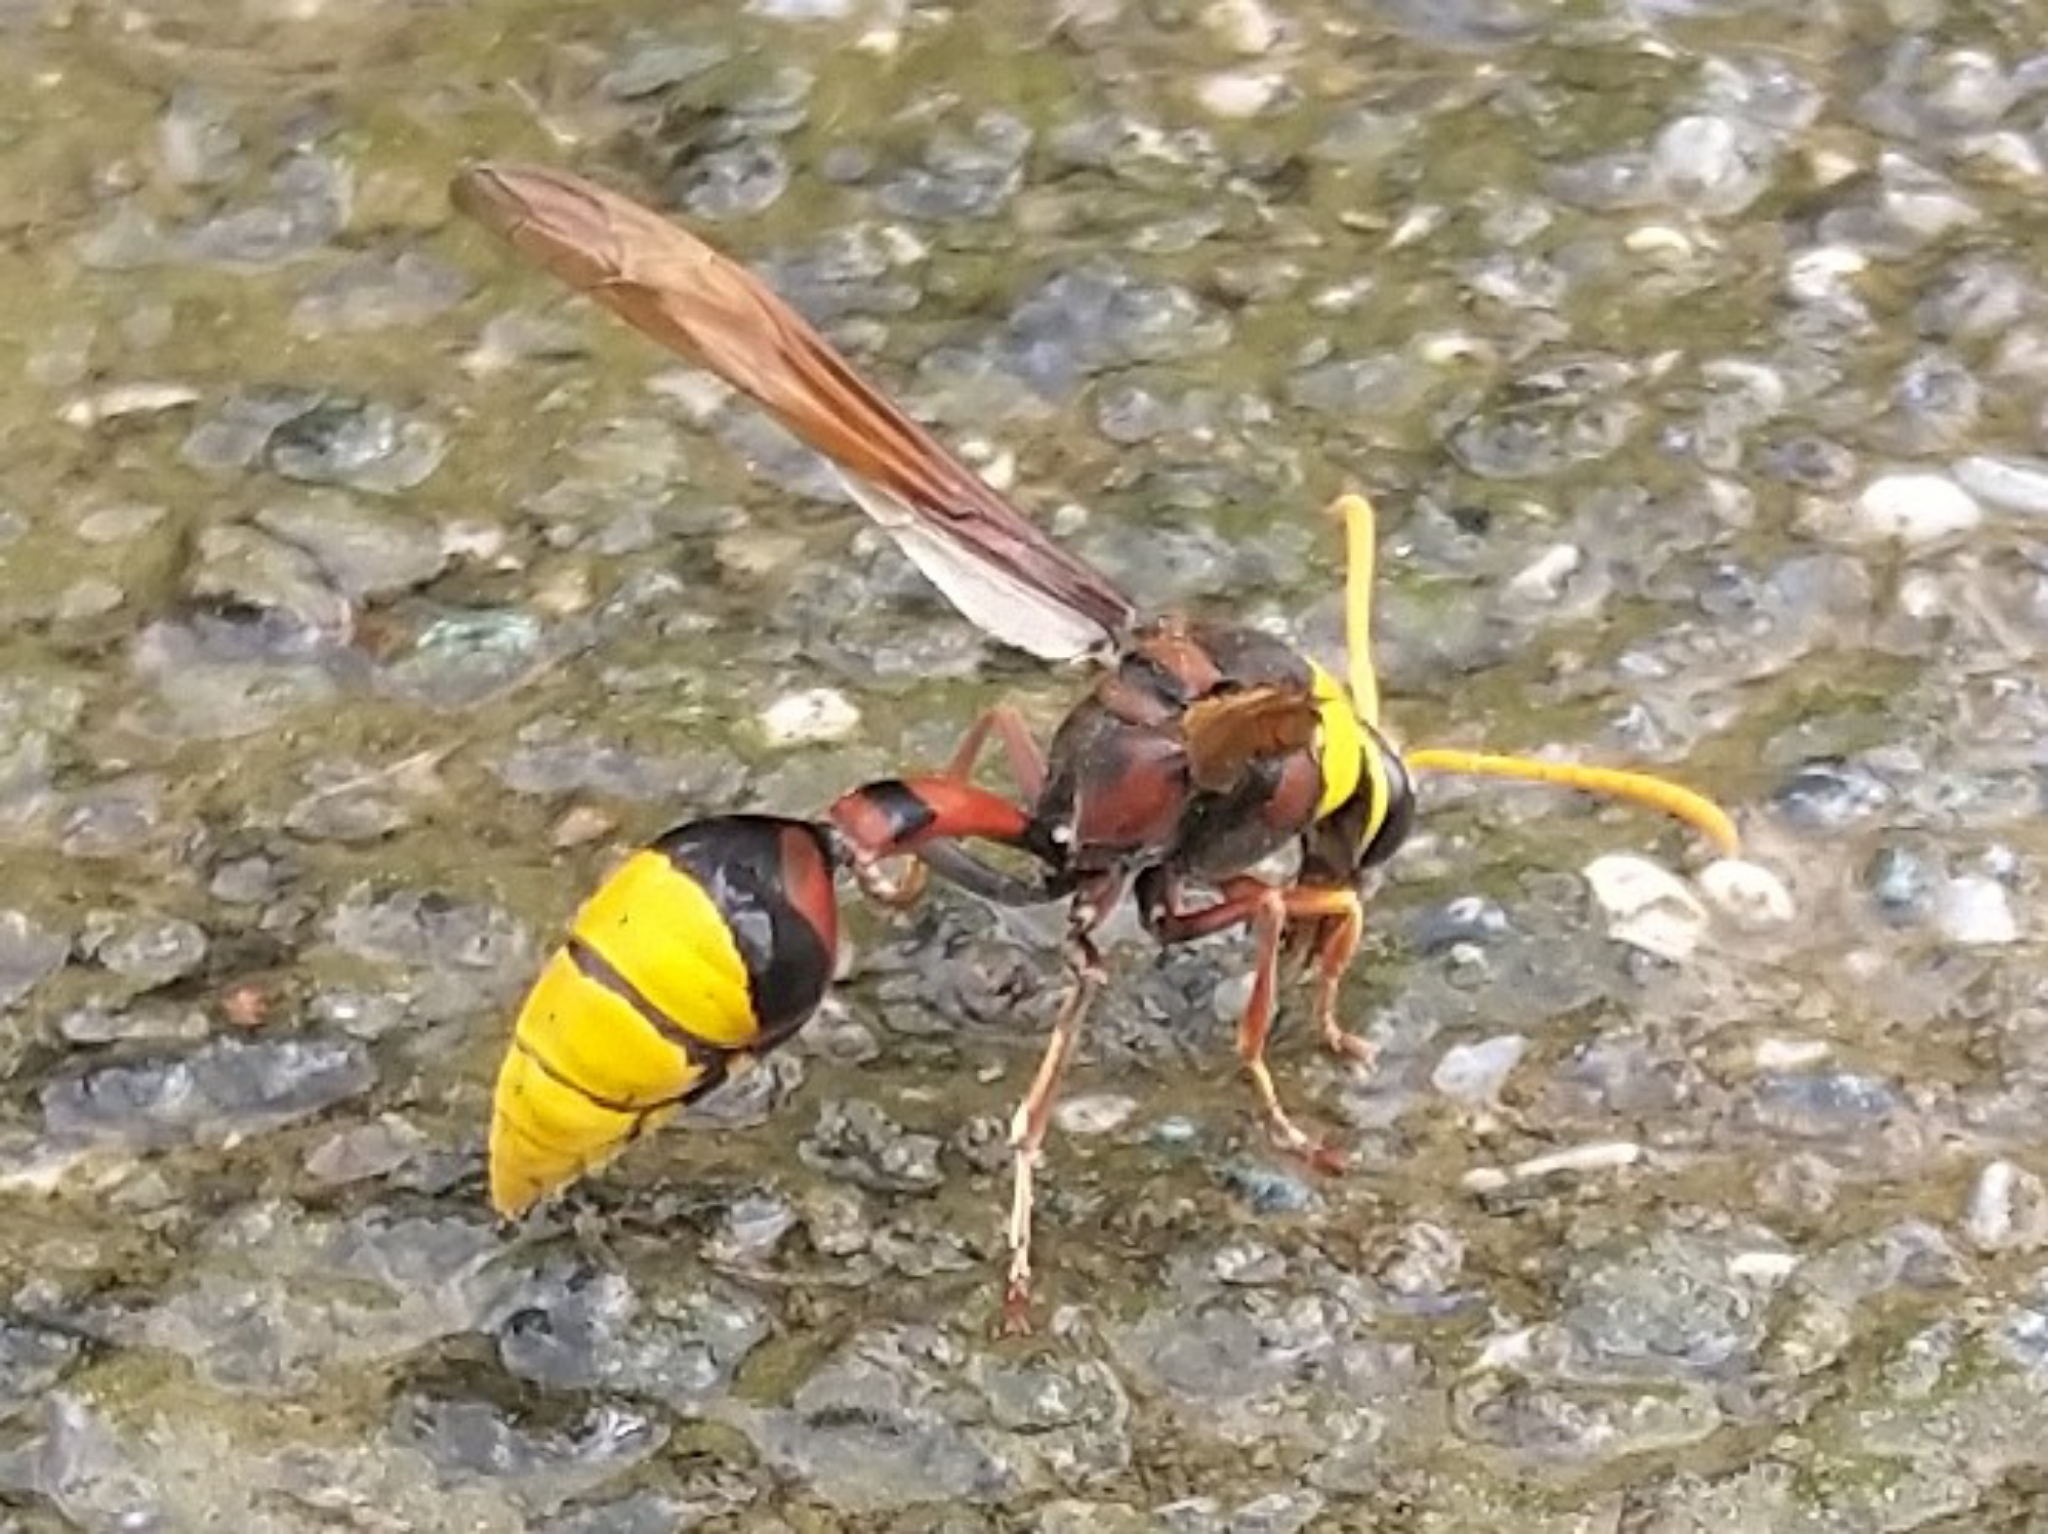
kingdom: Animalia
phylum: Arthropoda
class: Insecta
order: Hymenoptera
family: Eumenidae
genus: Delta
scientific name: Delta pyriforme
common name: Wasp
